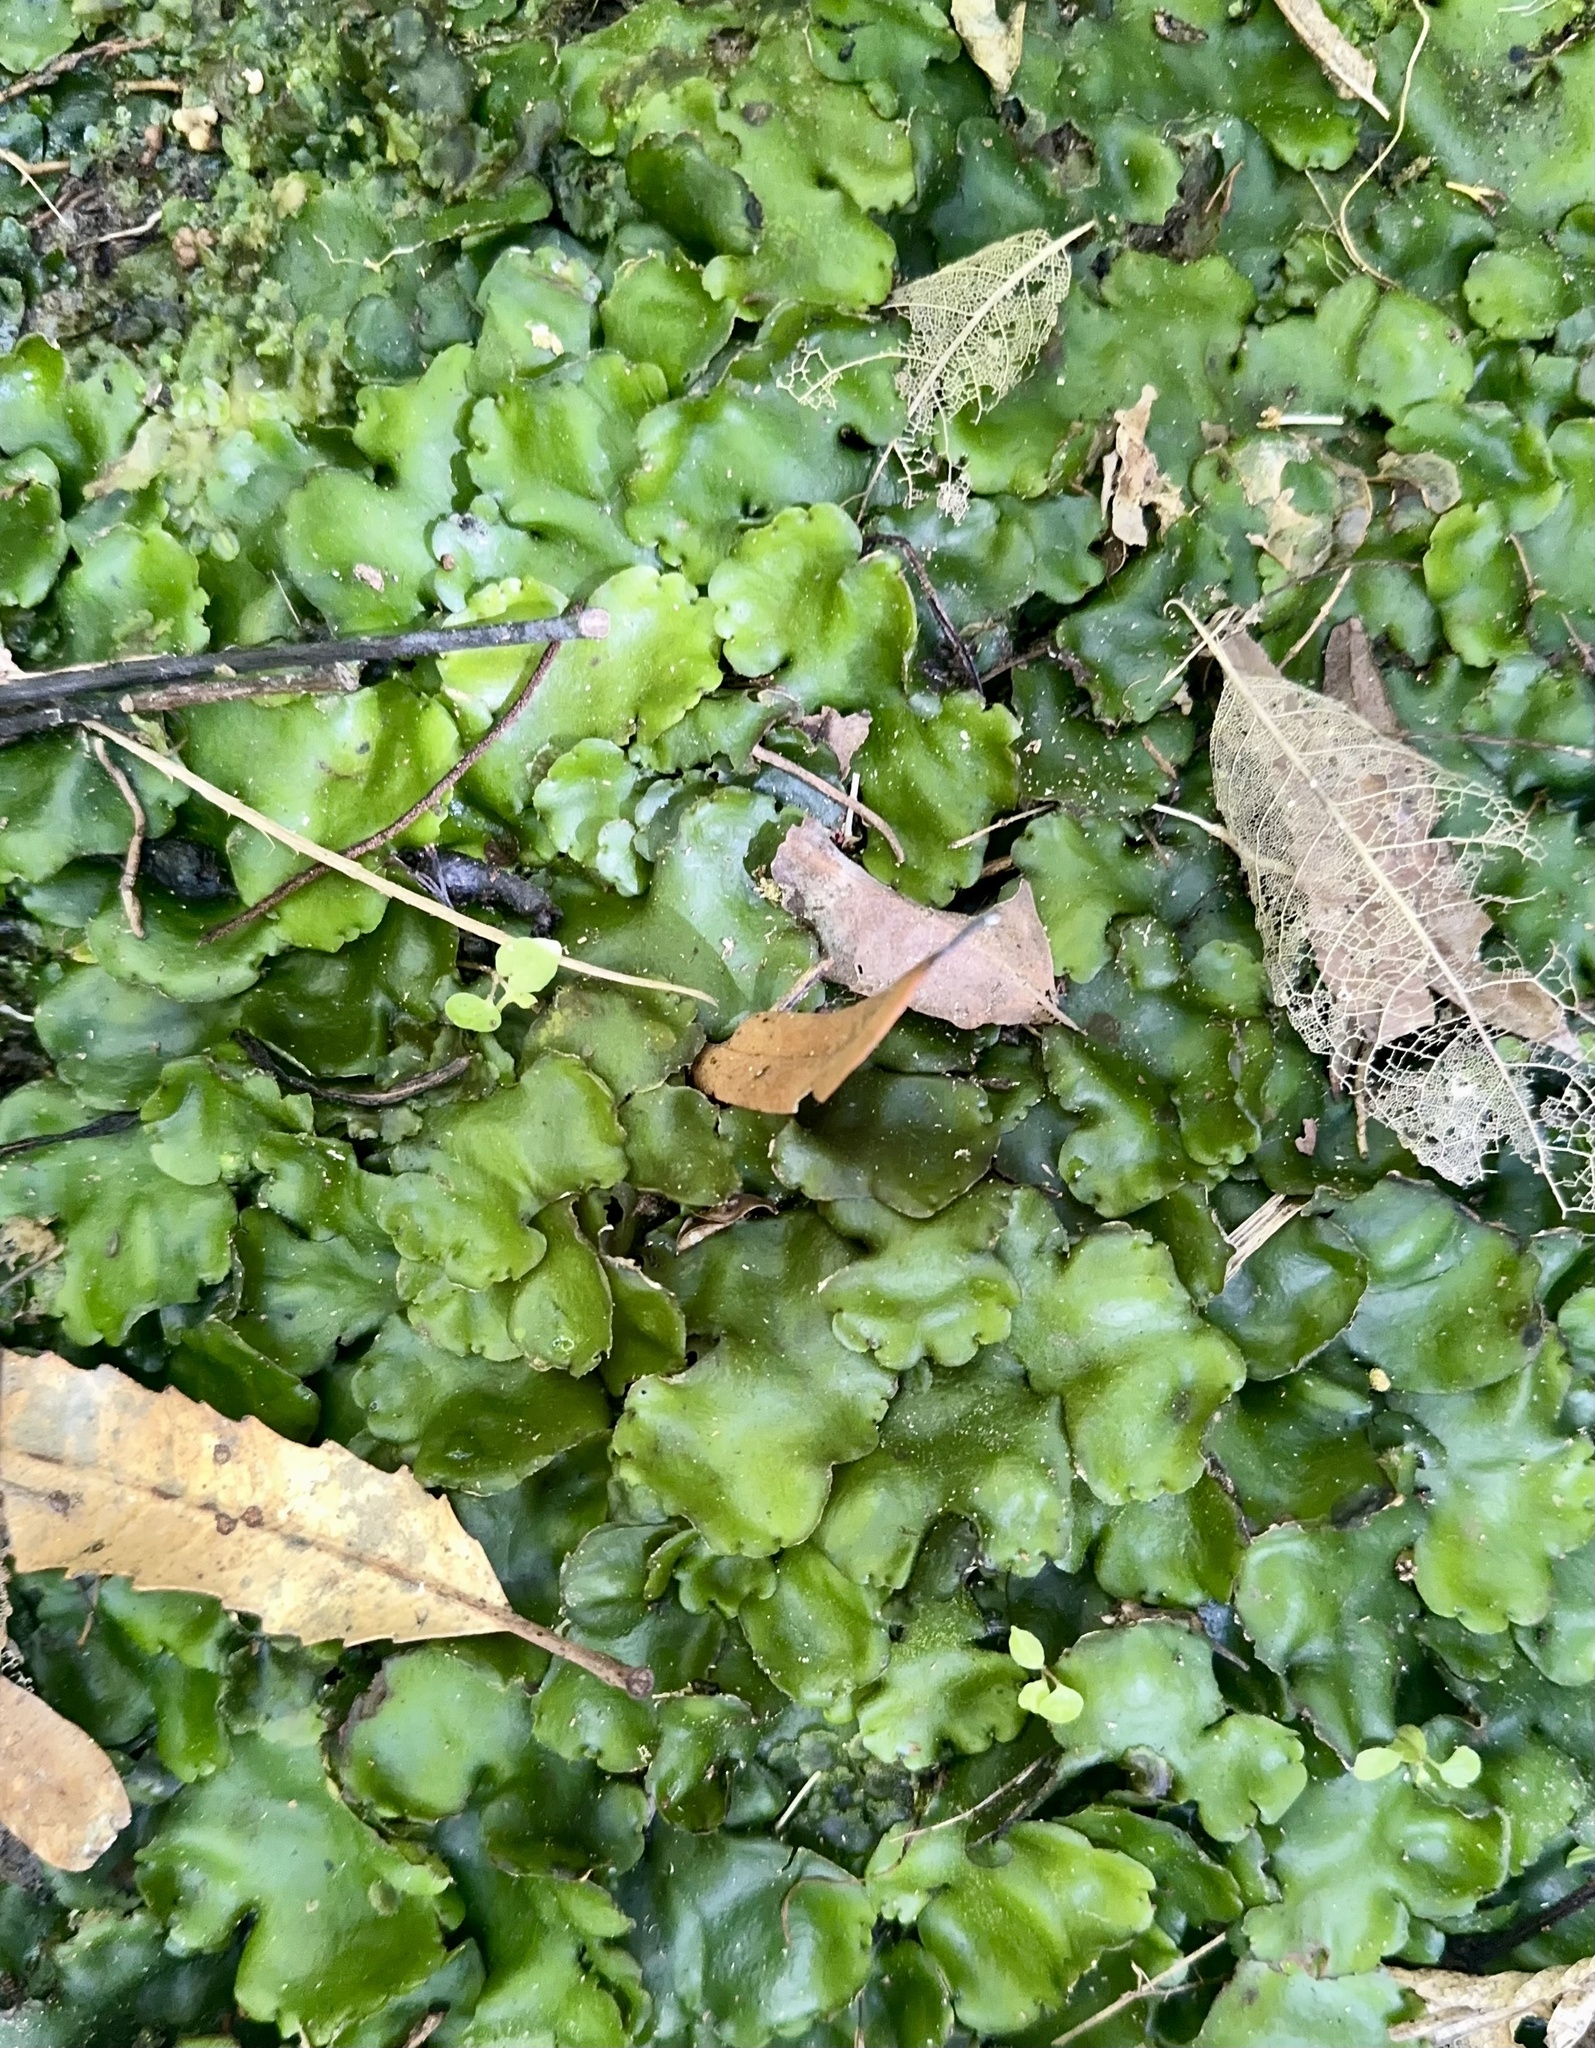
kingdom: Plantae
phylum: Marchantiophyta
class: Marchantiopsida
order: Marchantiales
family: Monocleaceae
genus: Monoclea
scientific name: Monoclea forsteri
